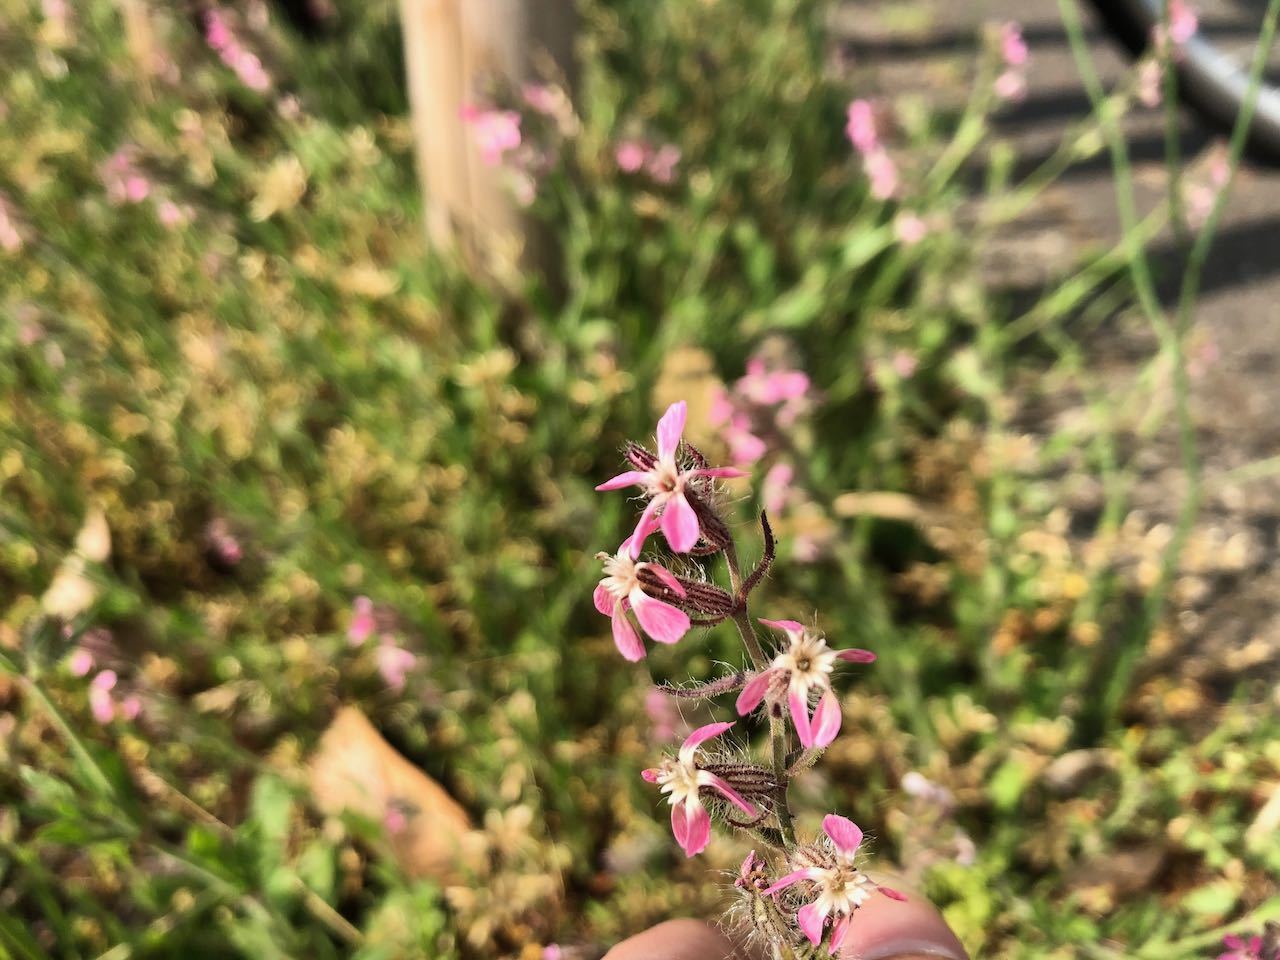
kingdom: Plantae
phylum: Tracheophyta
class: Magnoliopsida
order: Caryophyllales
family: Caryophyllaceae
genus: Silene
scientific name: Silene gallica
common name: Small-flowered catchfly
